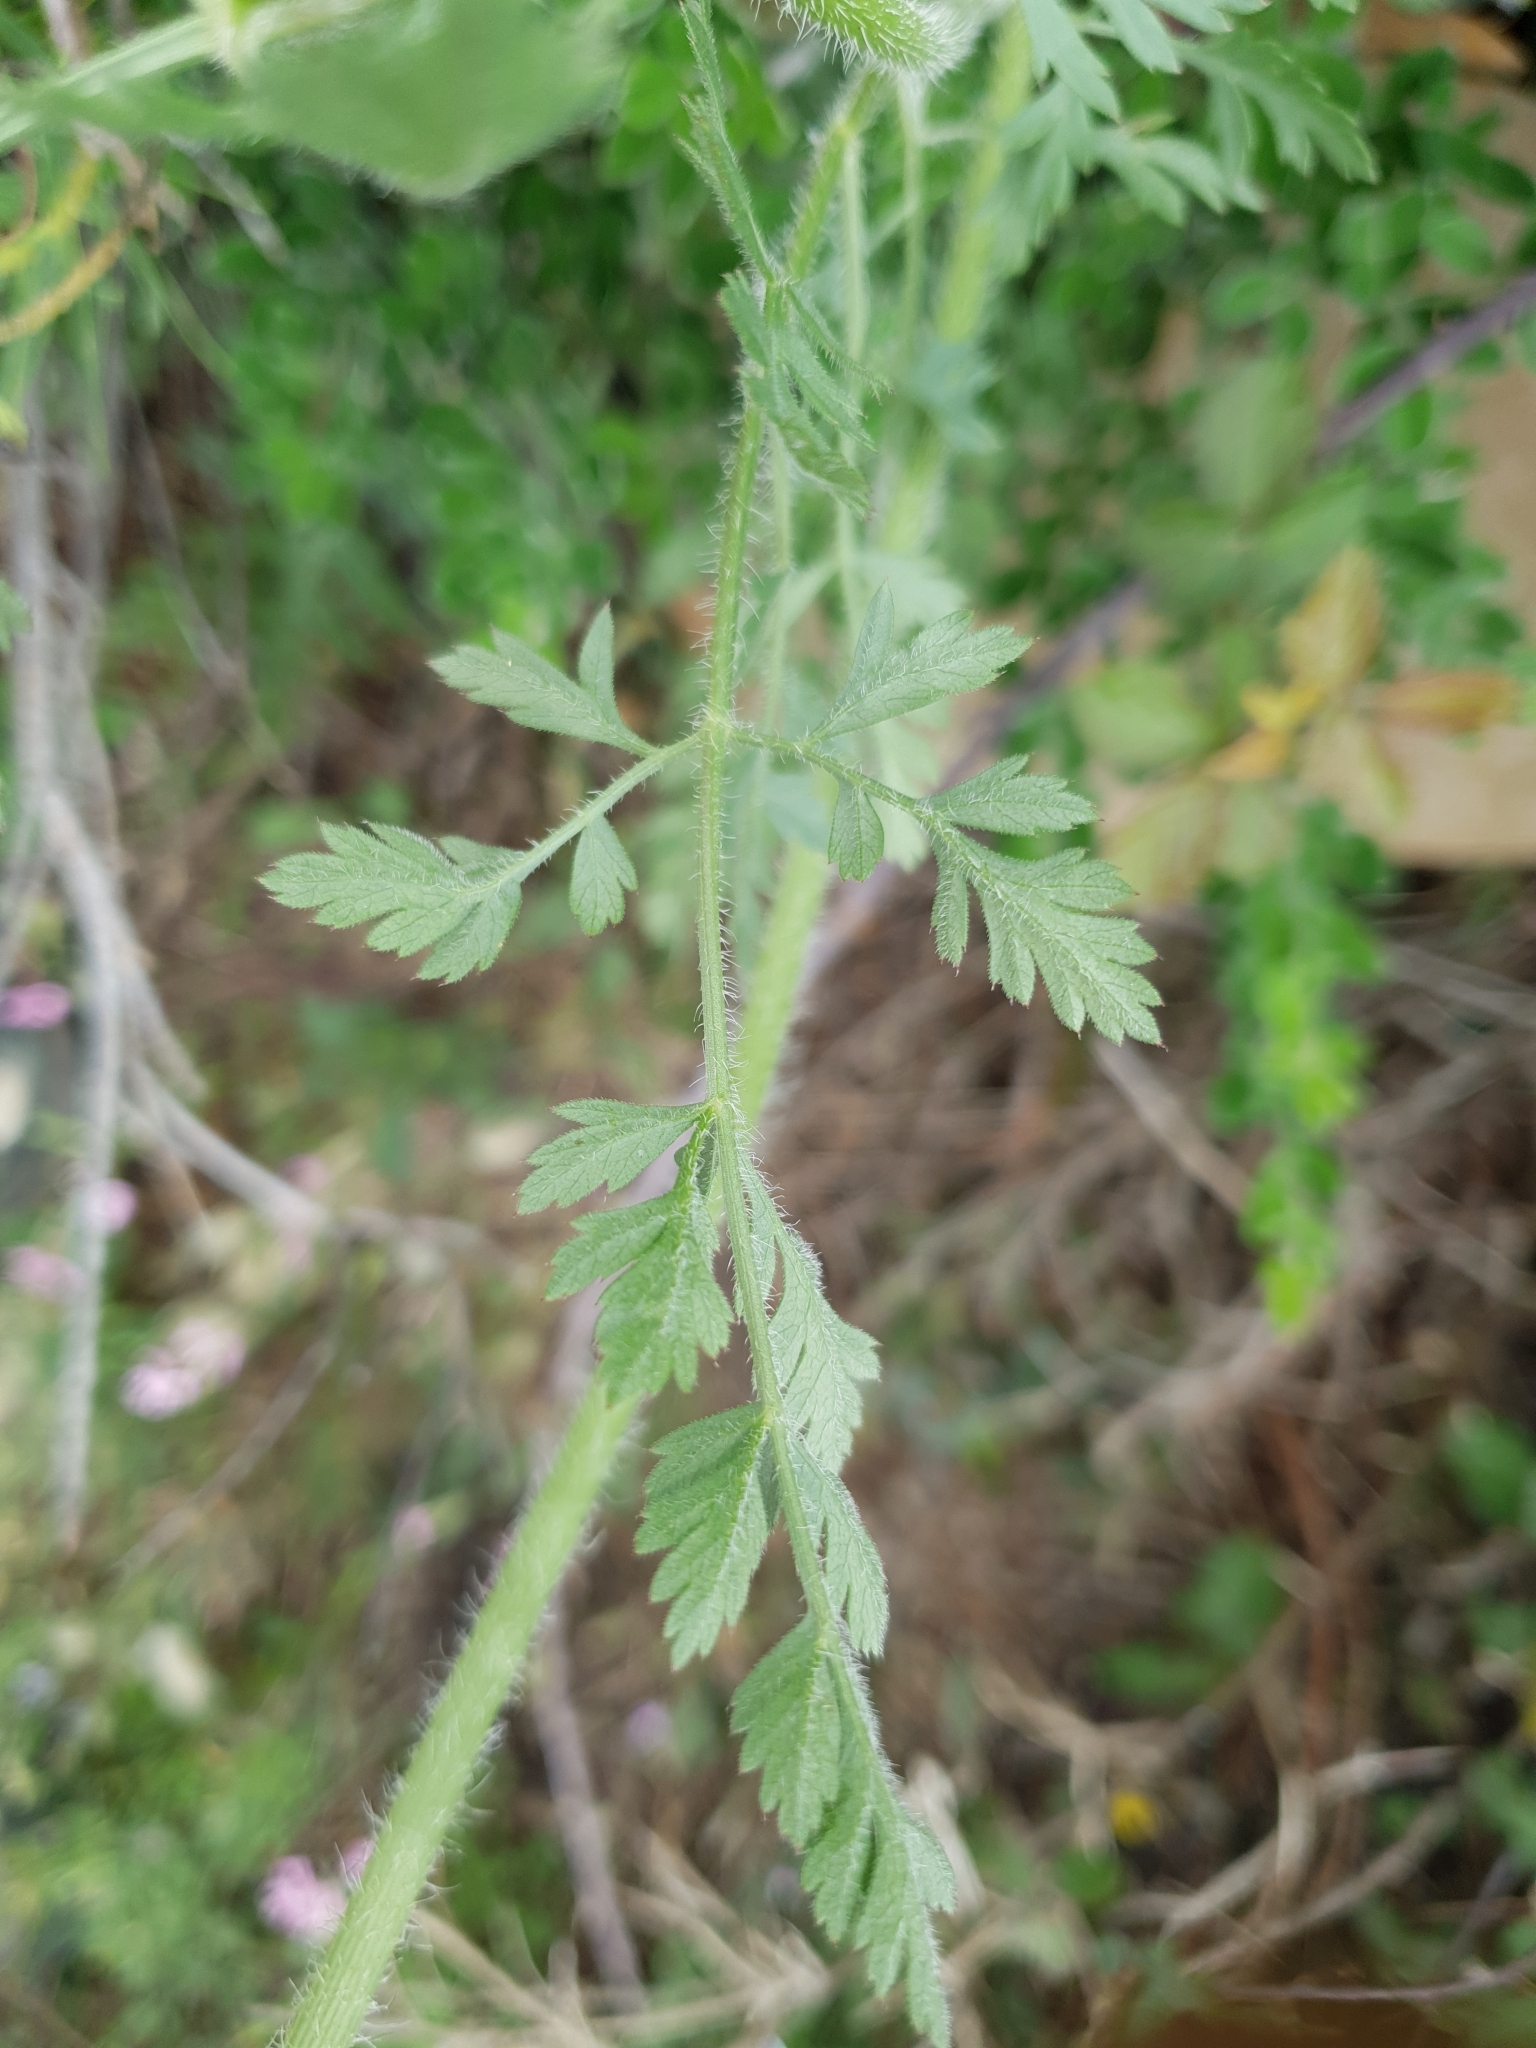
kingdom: Plantae
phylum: Tracheophyta
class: Magnoliopsida
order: Apiales
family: Apiaceae
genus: Daucus
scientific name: Daucus carota
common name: Wild carrot
